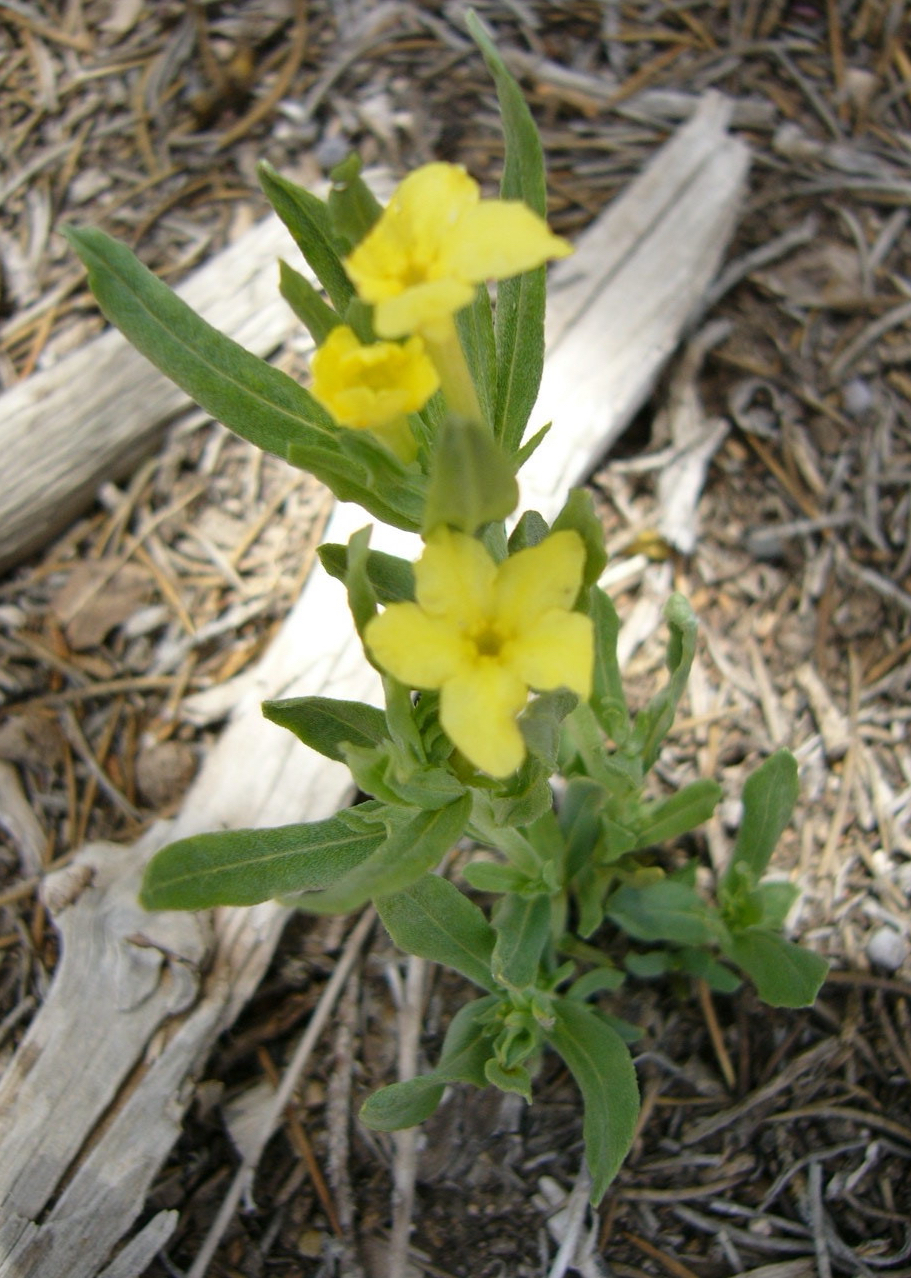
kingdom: Plantae
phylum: Tracheophyta
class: Magnoliopsida
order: Boraginales
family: Boraginaceae
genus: Lithospermum
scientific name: Lithospermum incisum
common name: Fringed gromwell
